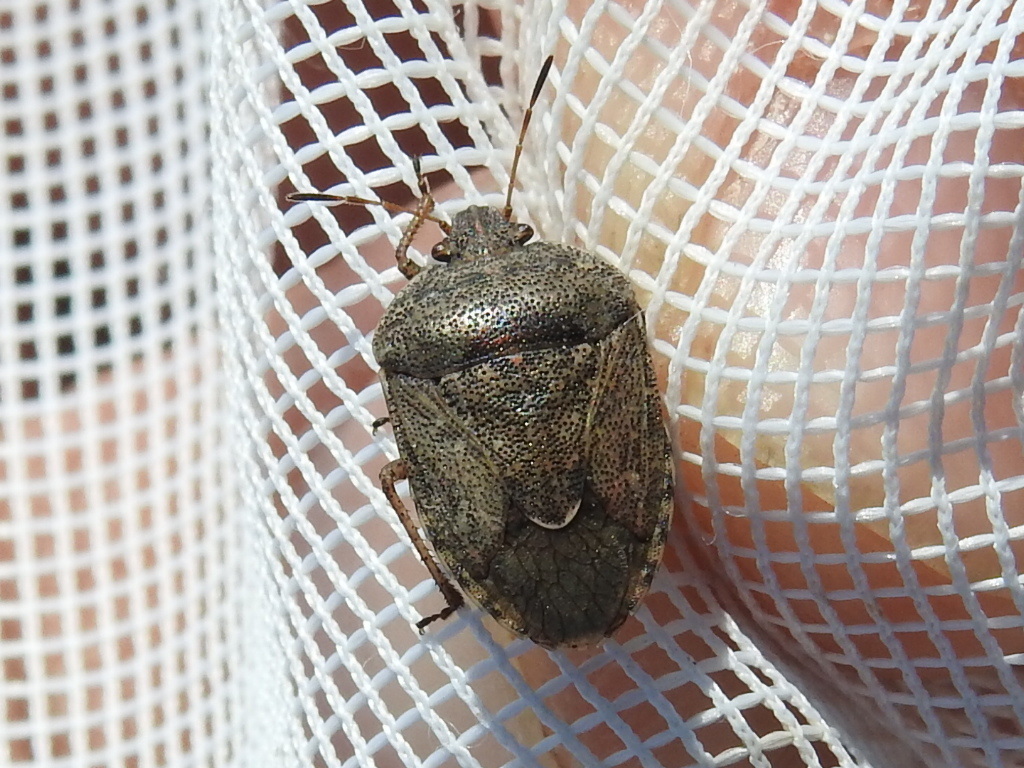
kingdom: Animalia
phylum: Arthropoda
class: Insecta
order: Hemiptera
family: Pentatomidae
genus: Hymenarcys
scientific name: Hymenarcys nervosa
